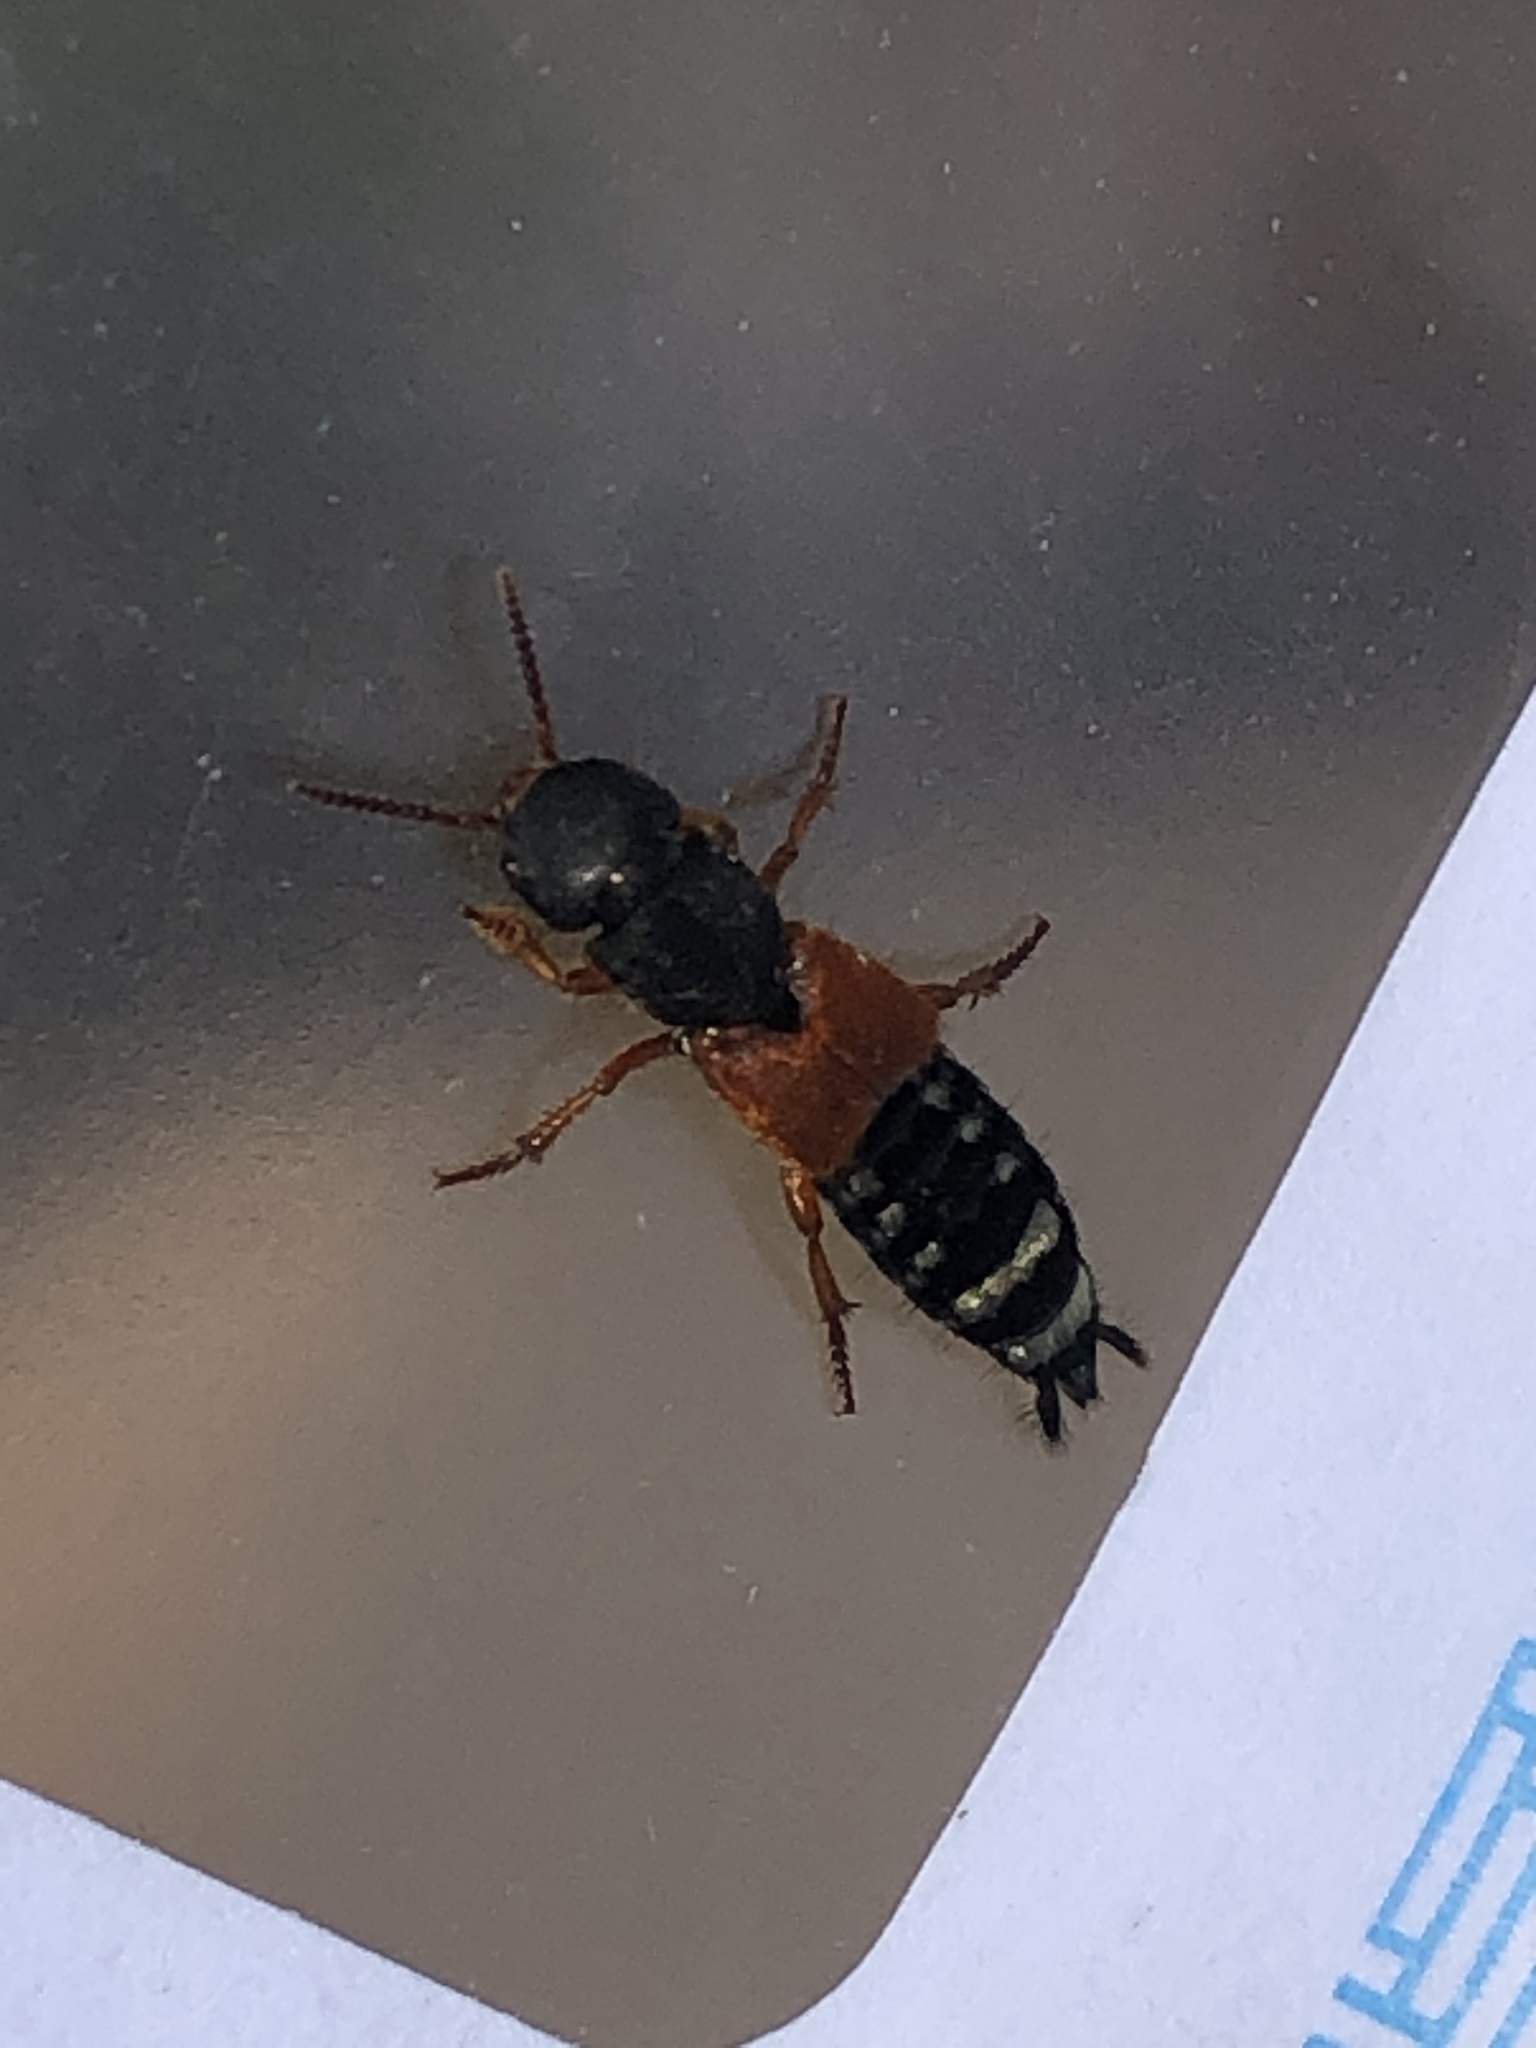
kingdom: Animalia
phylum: Arthropoda
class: Insecta
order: Coleoptera
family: Staphylinidae
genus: Platydracus
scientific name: Platydracus stercorarius
